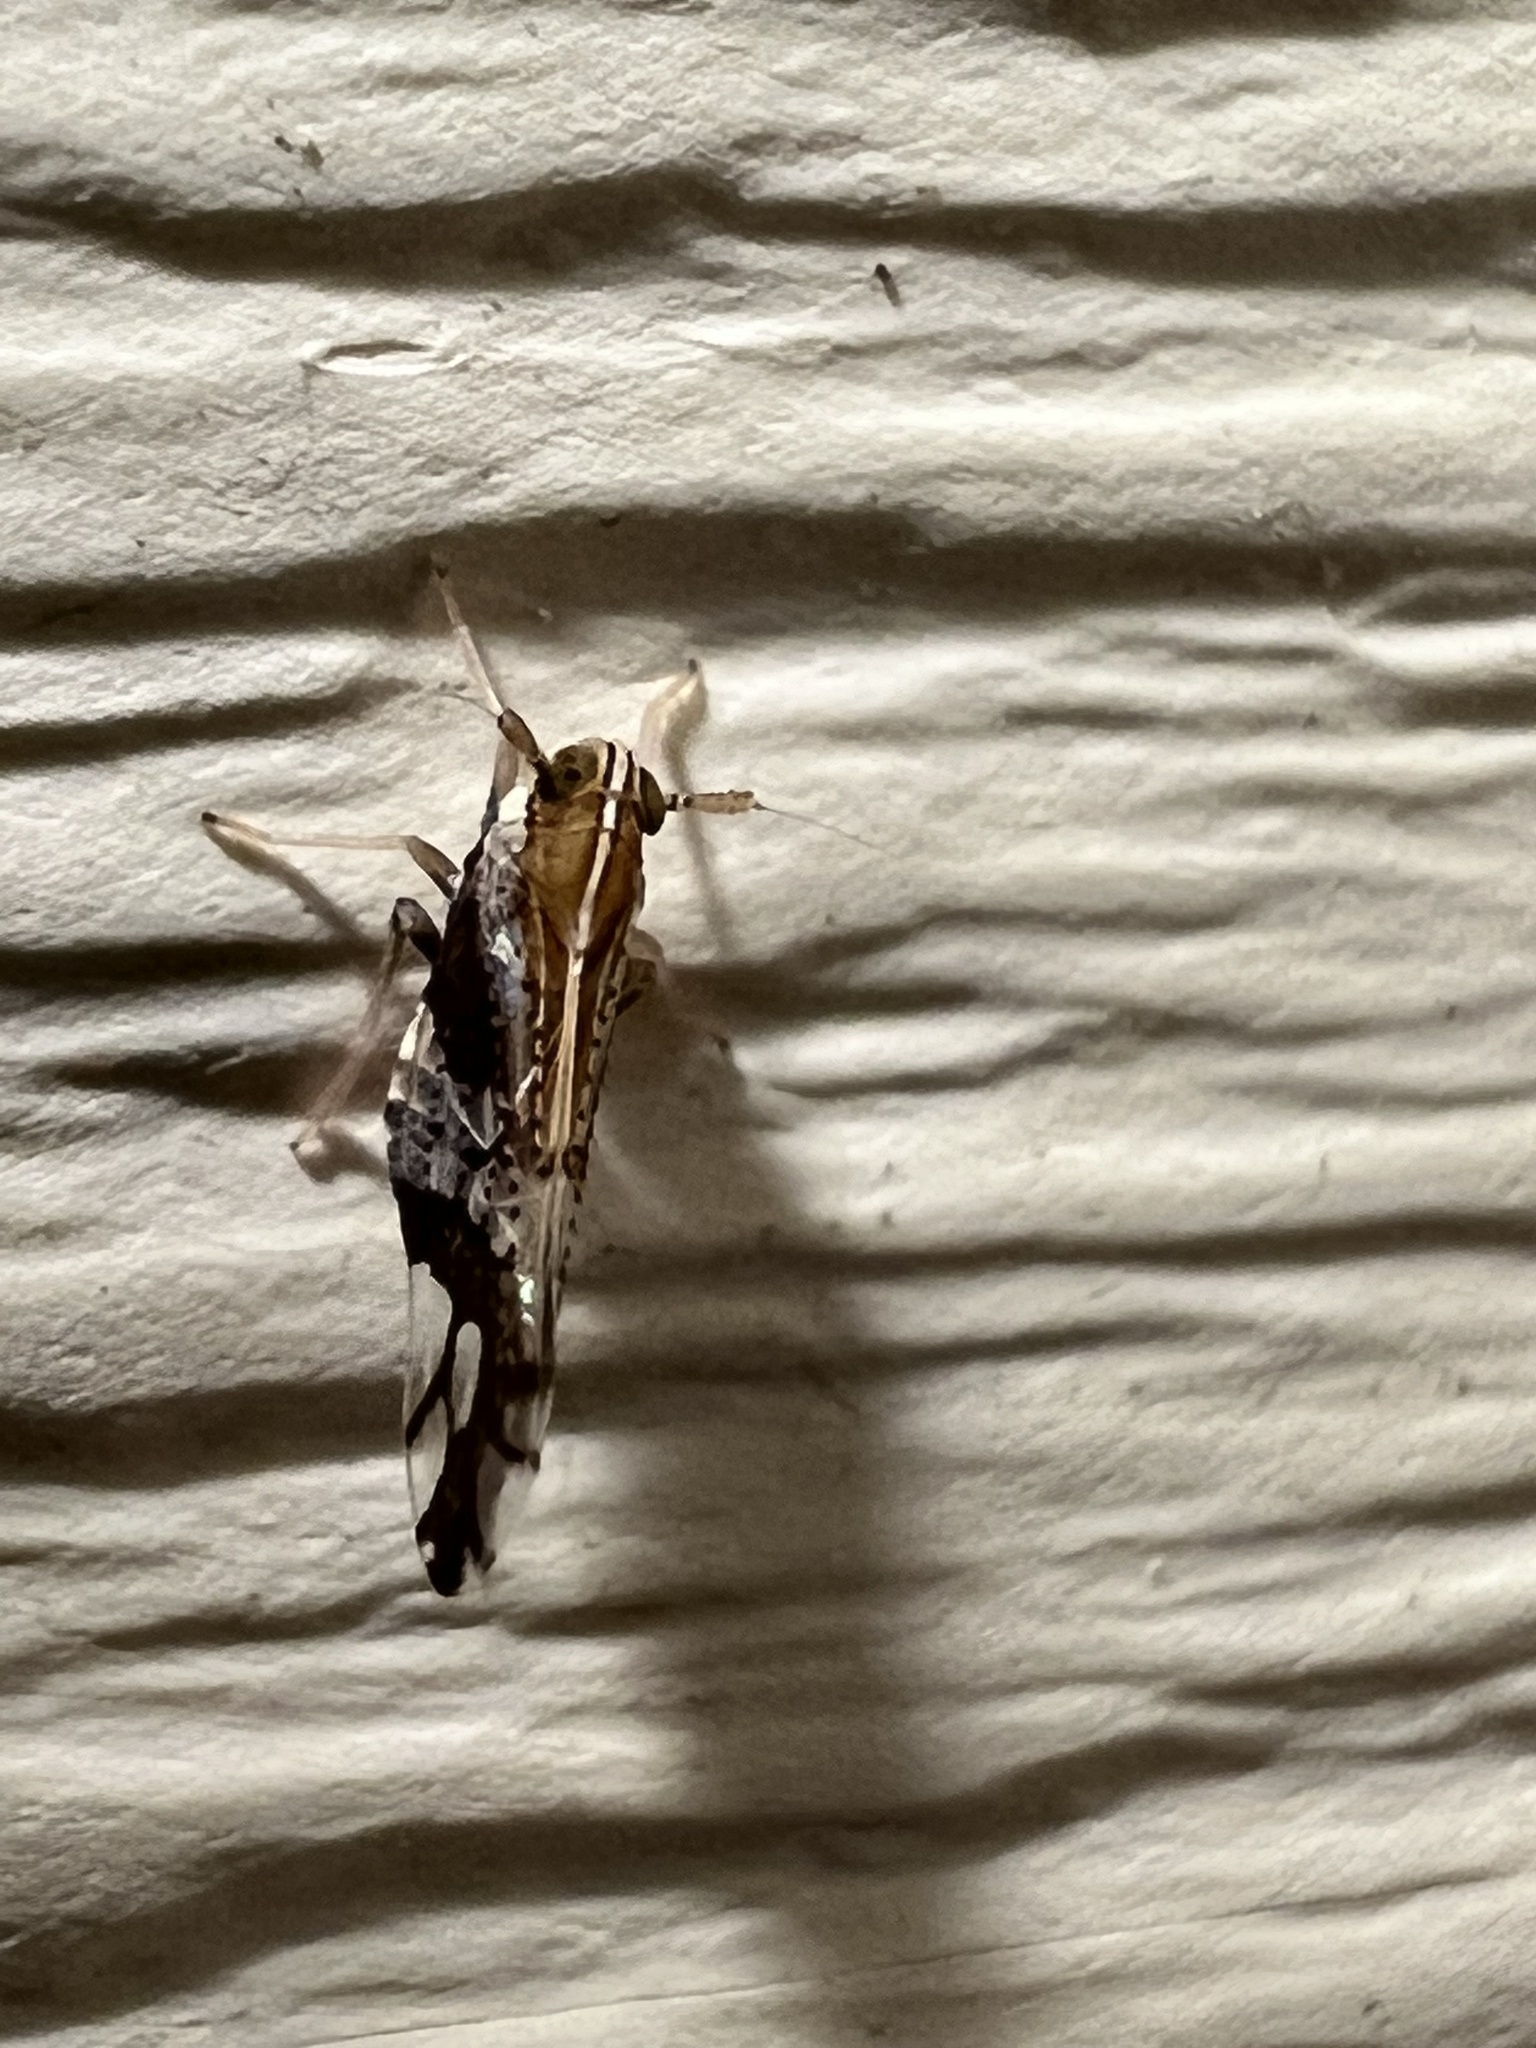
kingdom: Animalia
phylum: Arthropoda
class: Insecta
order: Hemiptera
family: Delphacidae
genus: Liburniella
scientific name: Liburniella ornata
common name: Ornate planthopper
